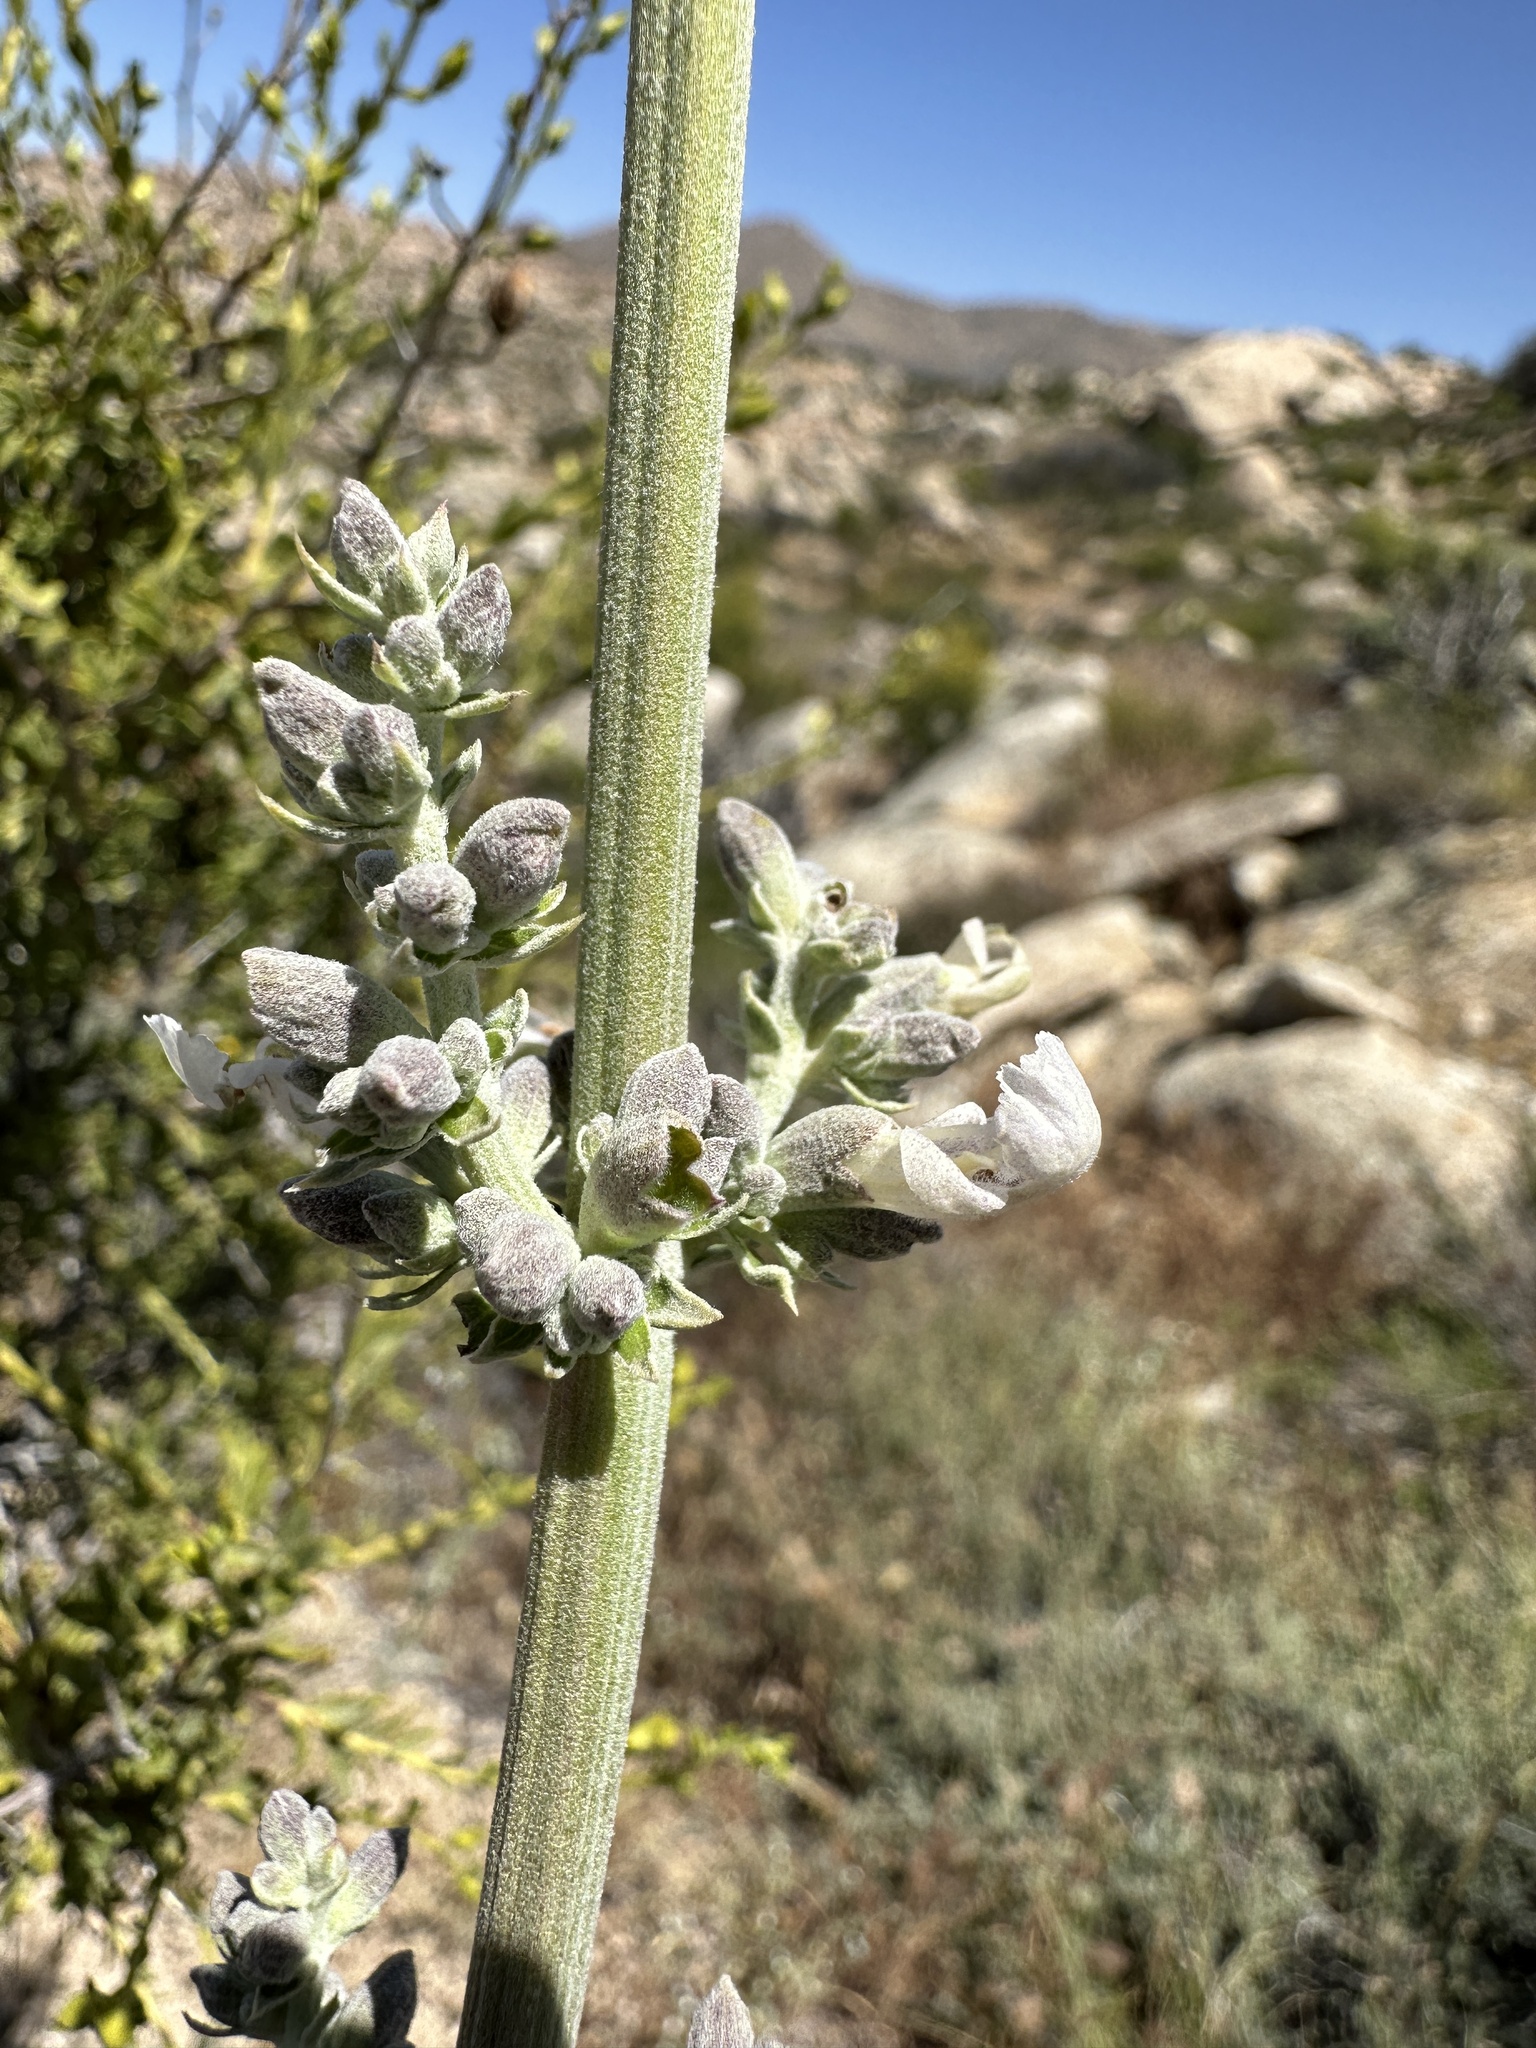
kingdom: Plantae
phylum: Tracheophyta
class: Magnoliopsida
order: Lamiales
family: Lamiaceae
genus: Salvia
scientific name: Salvia apiana
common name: White sage
